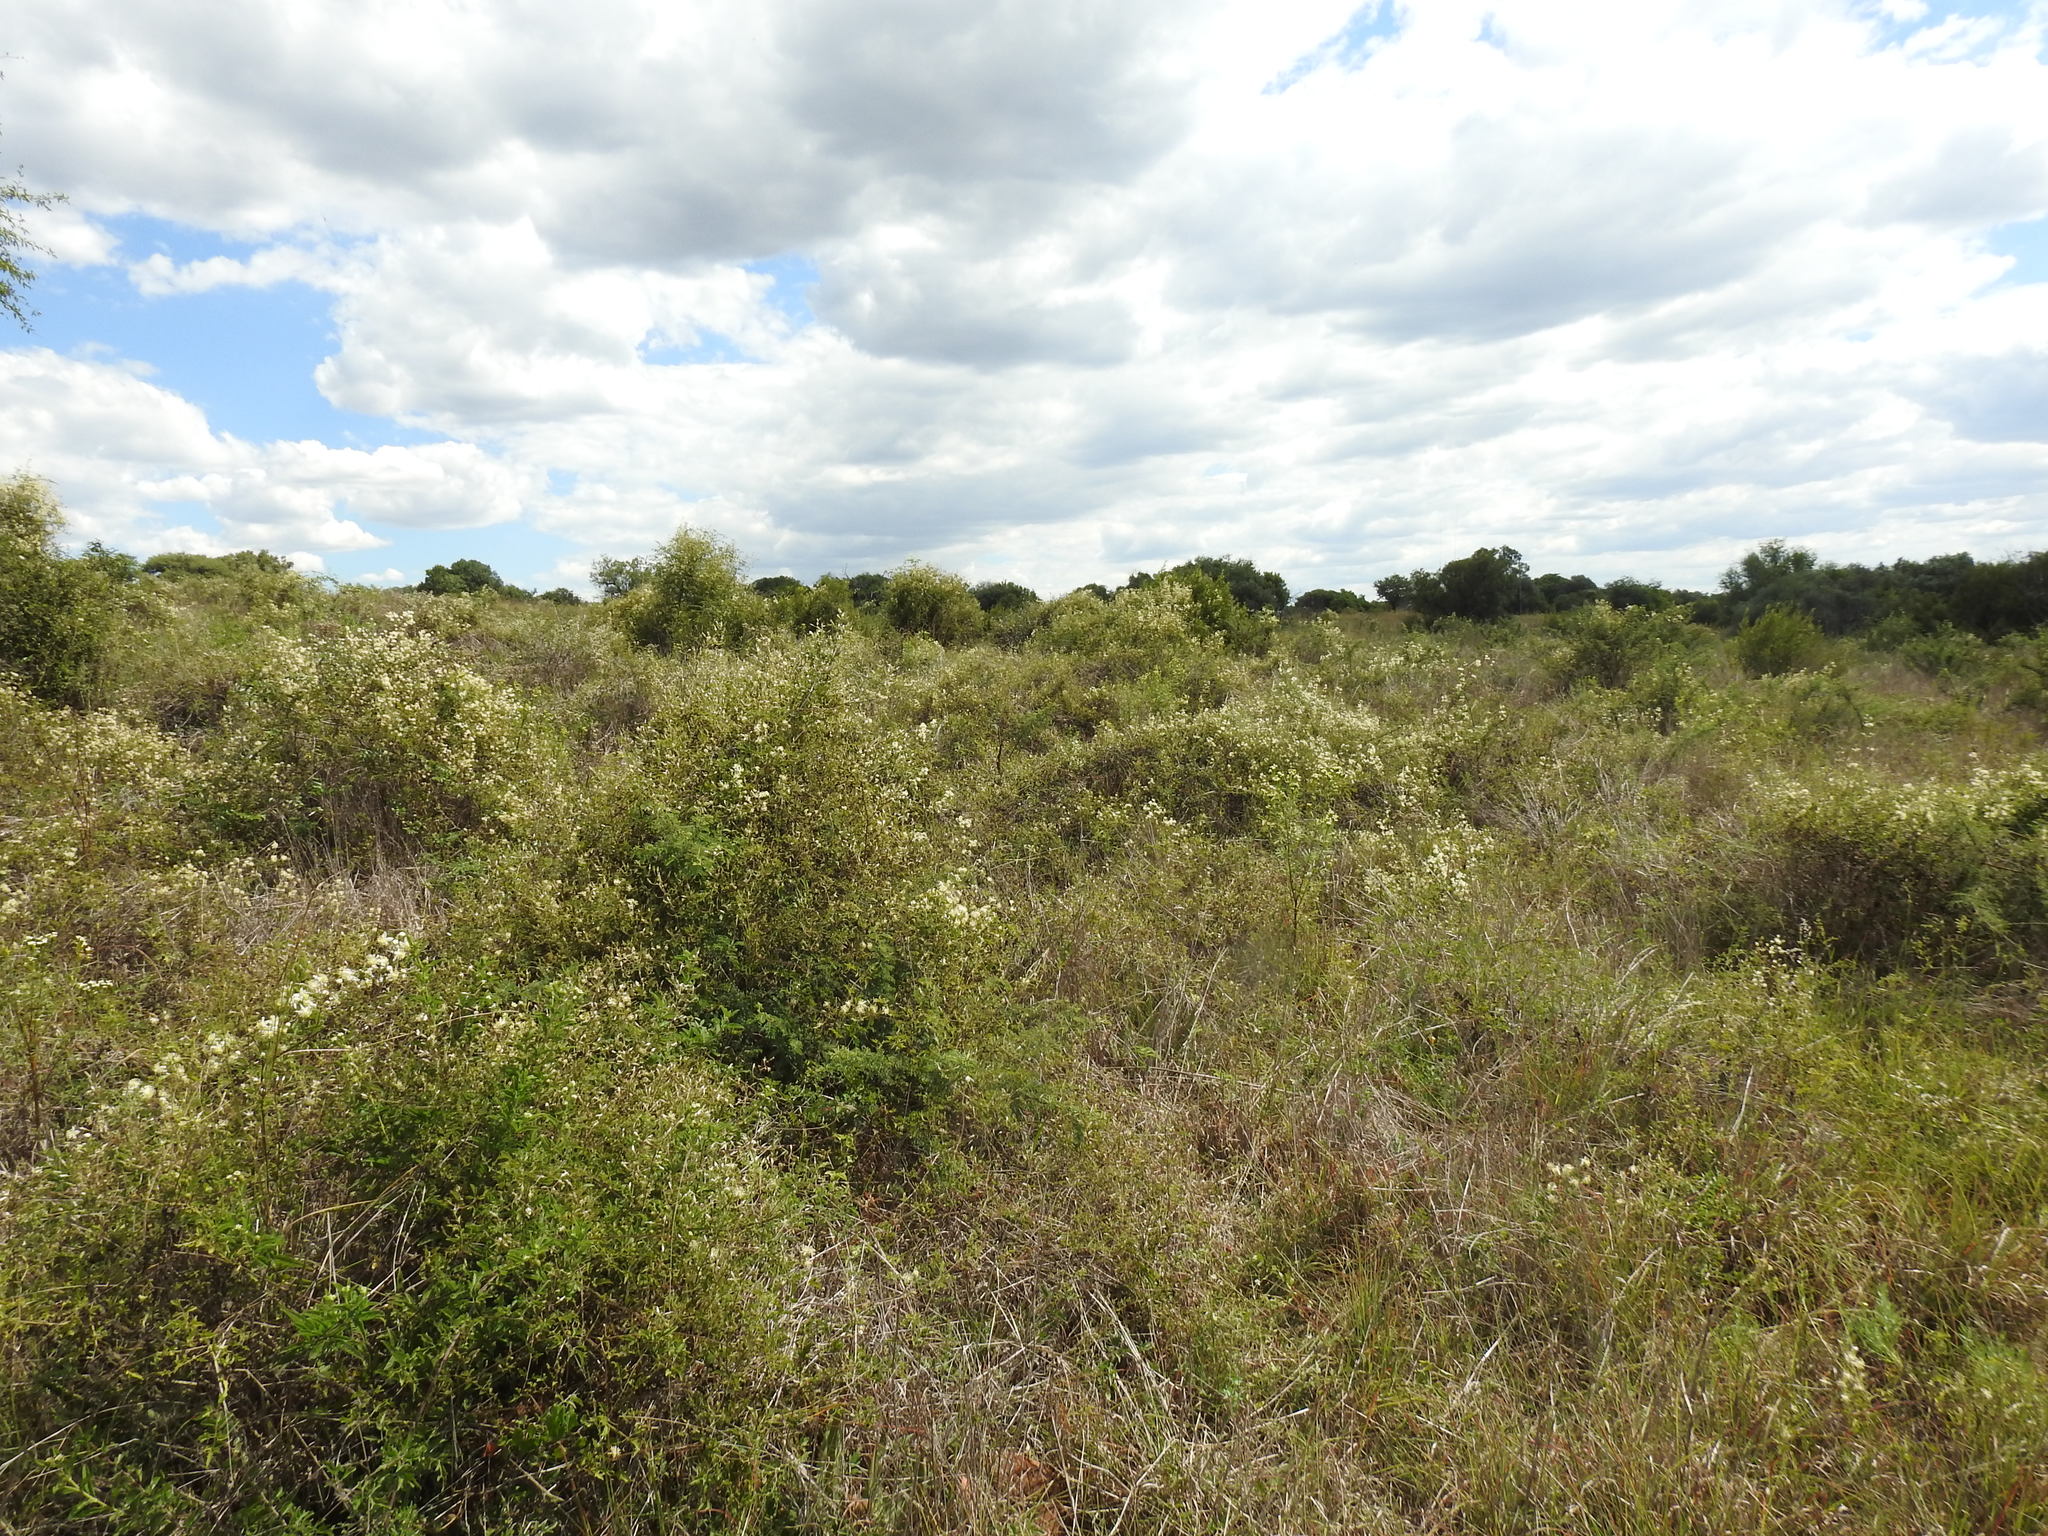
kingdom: Plantae
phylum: Tracheophyta
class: Magnoliopsida
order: Ranunculales
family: Ranunculaceae
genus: Clematis
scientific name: Clematis brachiata
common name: Traveler's-joy
